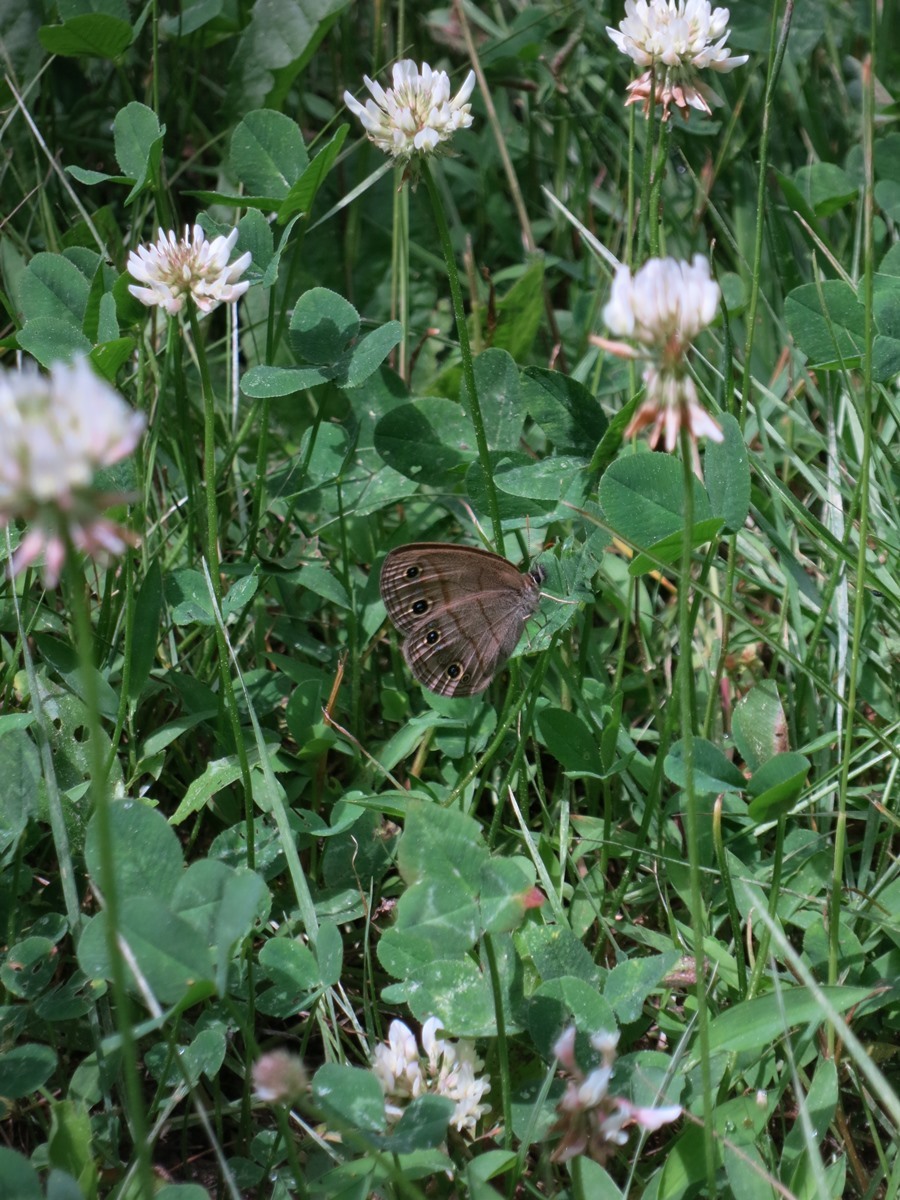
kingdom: Animalia
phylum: Arthropoda
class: Insecta
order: Lepidoptera
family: Nymphalidae
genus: Euptychia
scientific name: Euptychia cymela
